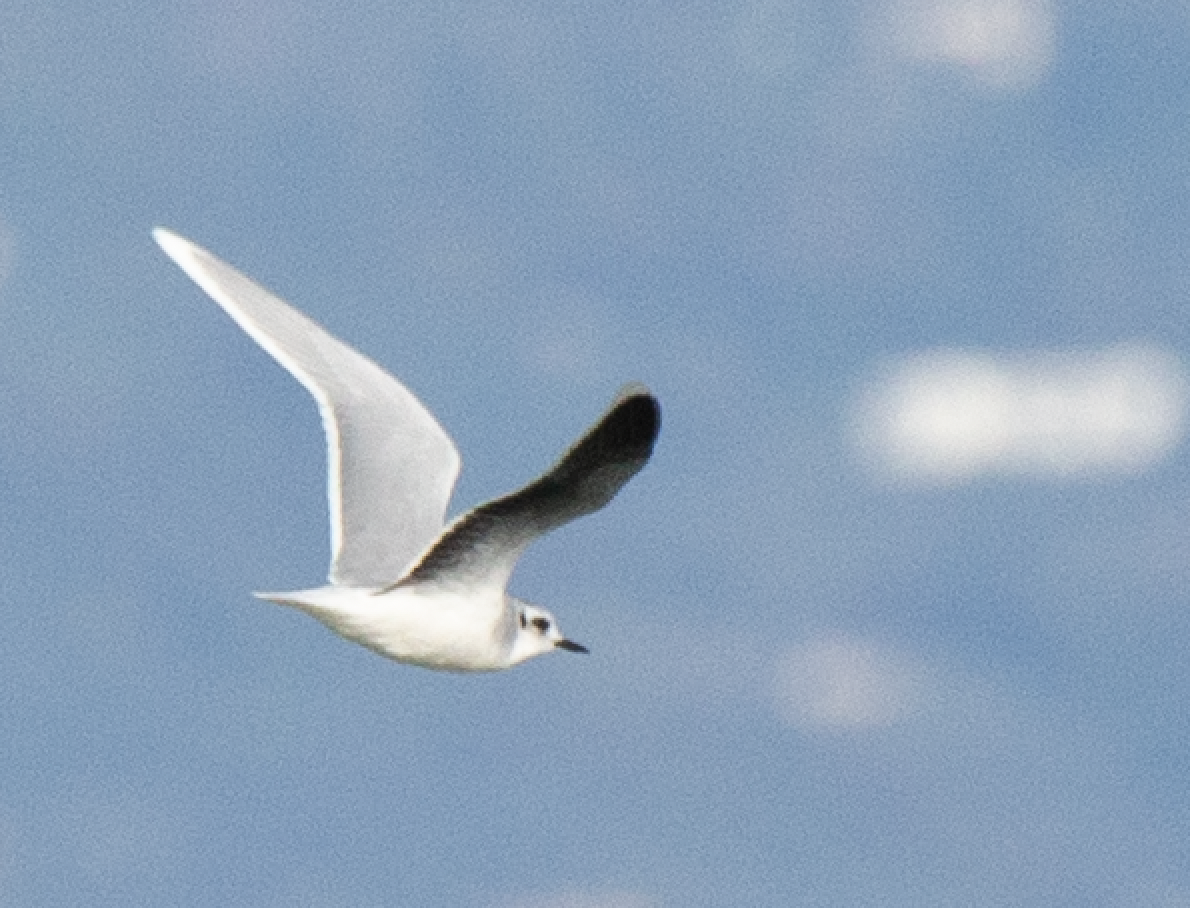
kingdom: Animalia
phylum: Chordata
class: Aves
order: Charadriiformes
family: Laridae
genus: Hydrocoloeus
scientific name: Hydrocoloeus minutus
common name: Little gull
